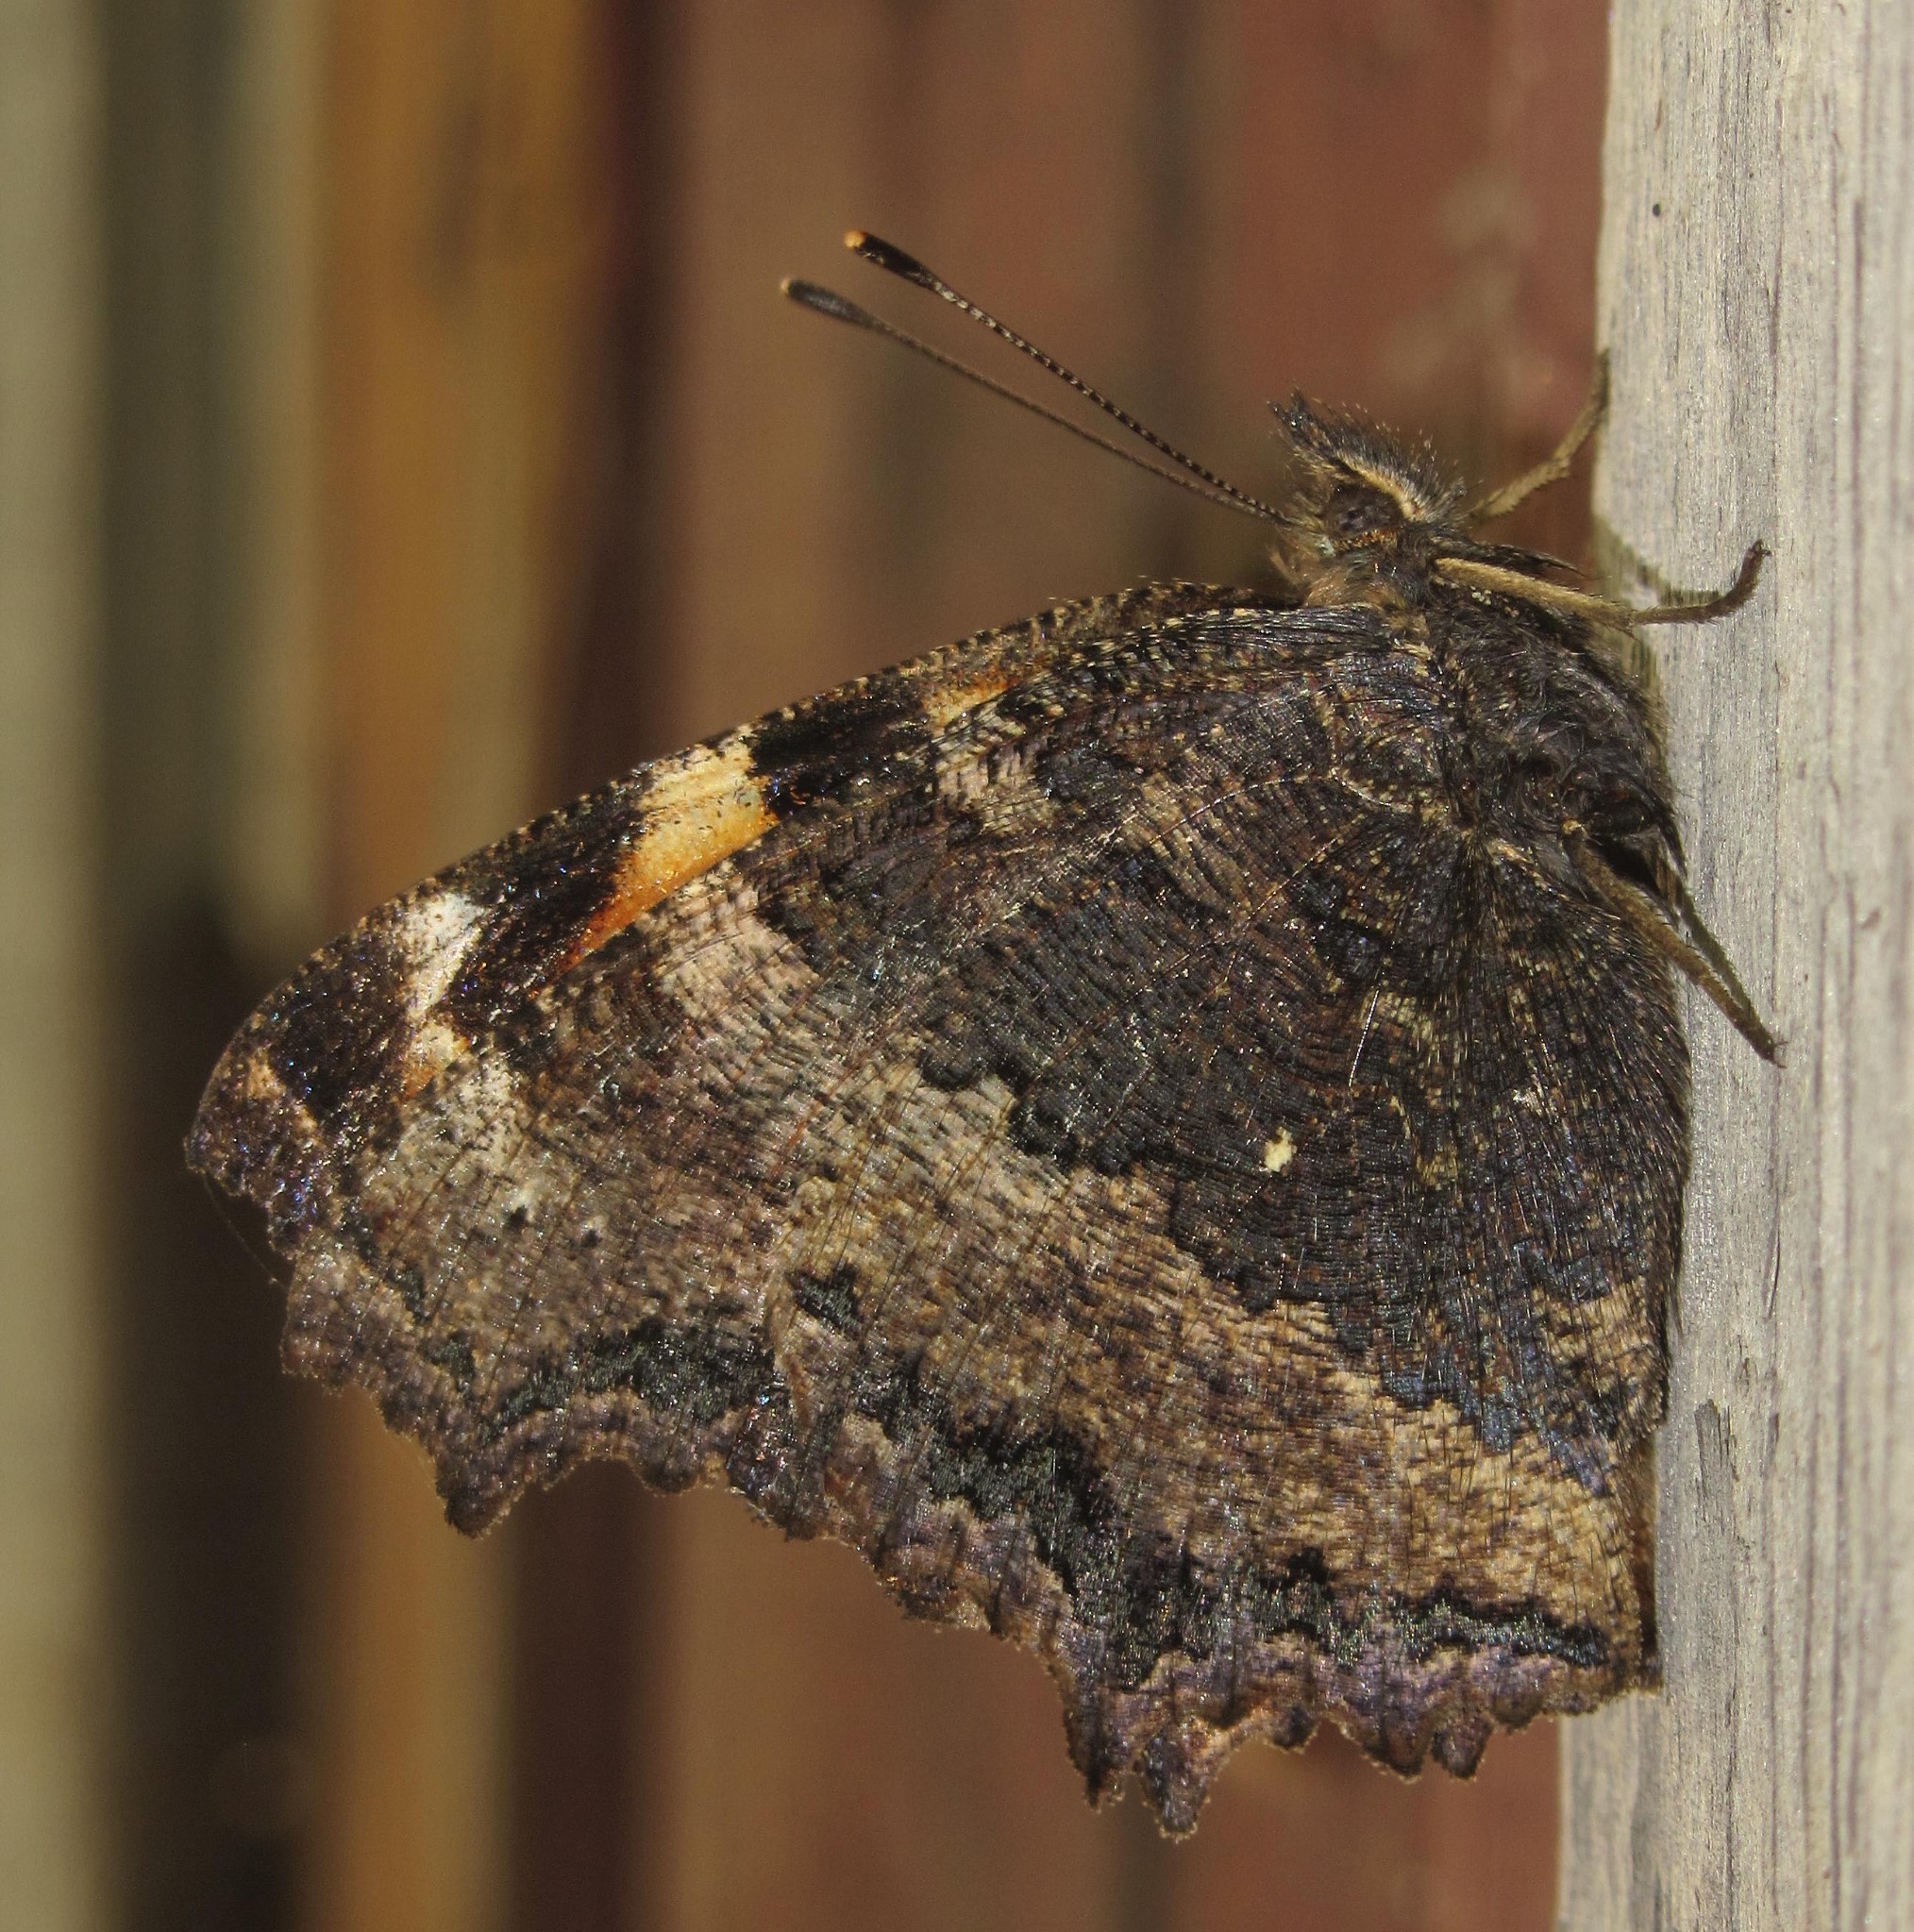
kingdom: Animalia
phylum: Arthropoda
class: Insecta
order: Lepidoptera
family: Nymphalidae
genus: Nymphalis
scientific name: Nymphalis xanthomelas
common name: Scarce tortoiseshell
